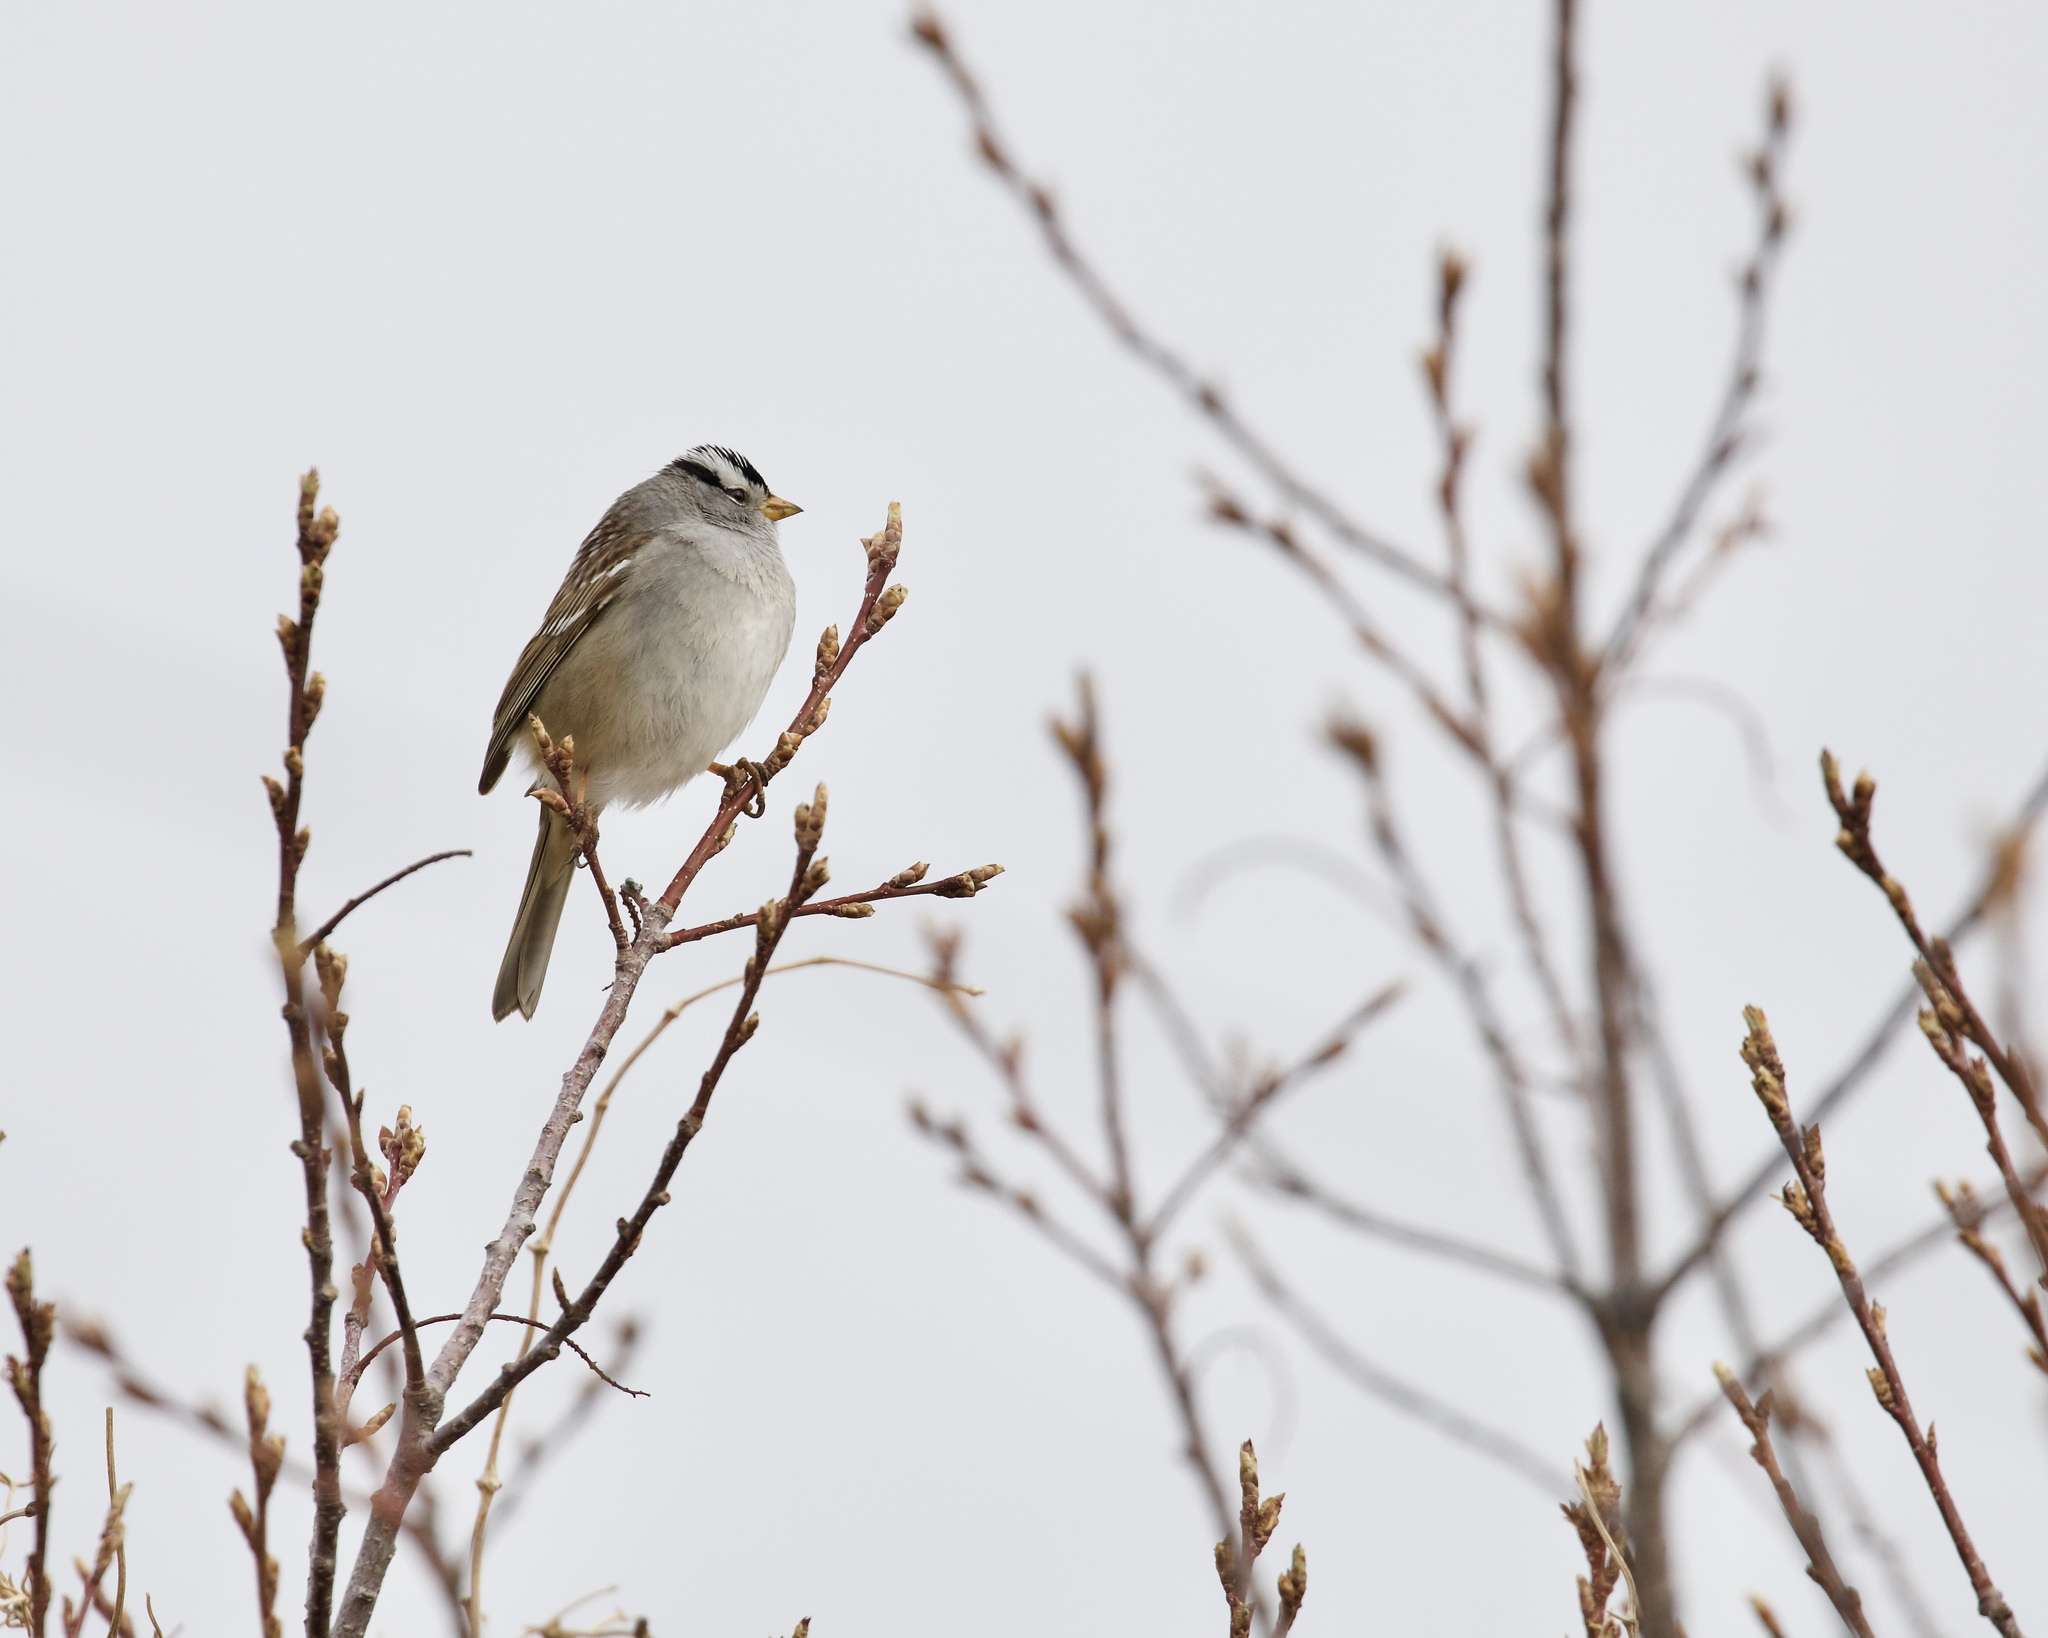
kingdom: Animalia
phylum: Chordata
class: Aves
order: Passeriformes
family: Passerellidae
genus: Zonotrichia
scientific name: Zonotrichia leucophrys
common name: White-crowned sparrow
